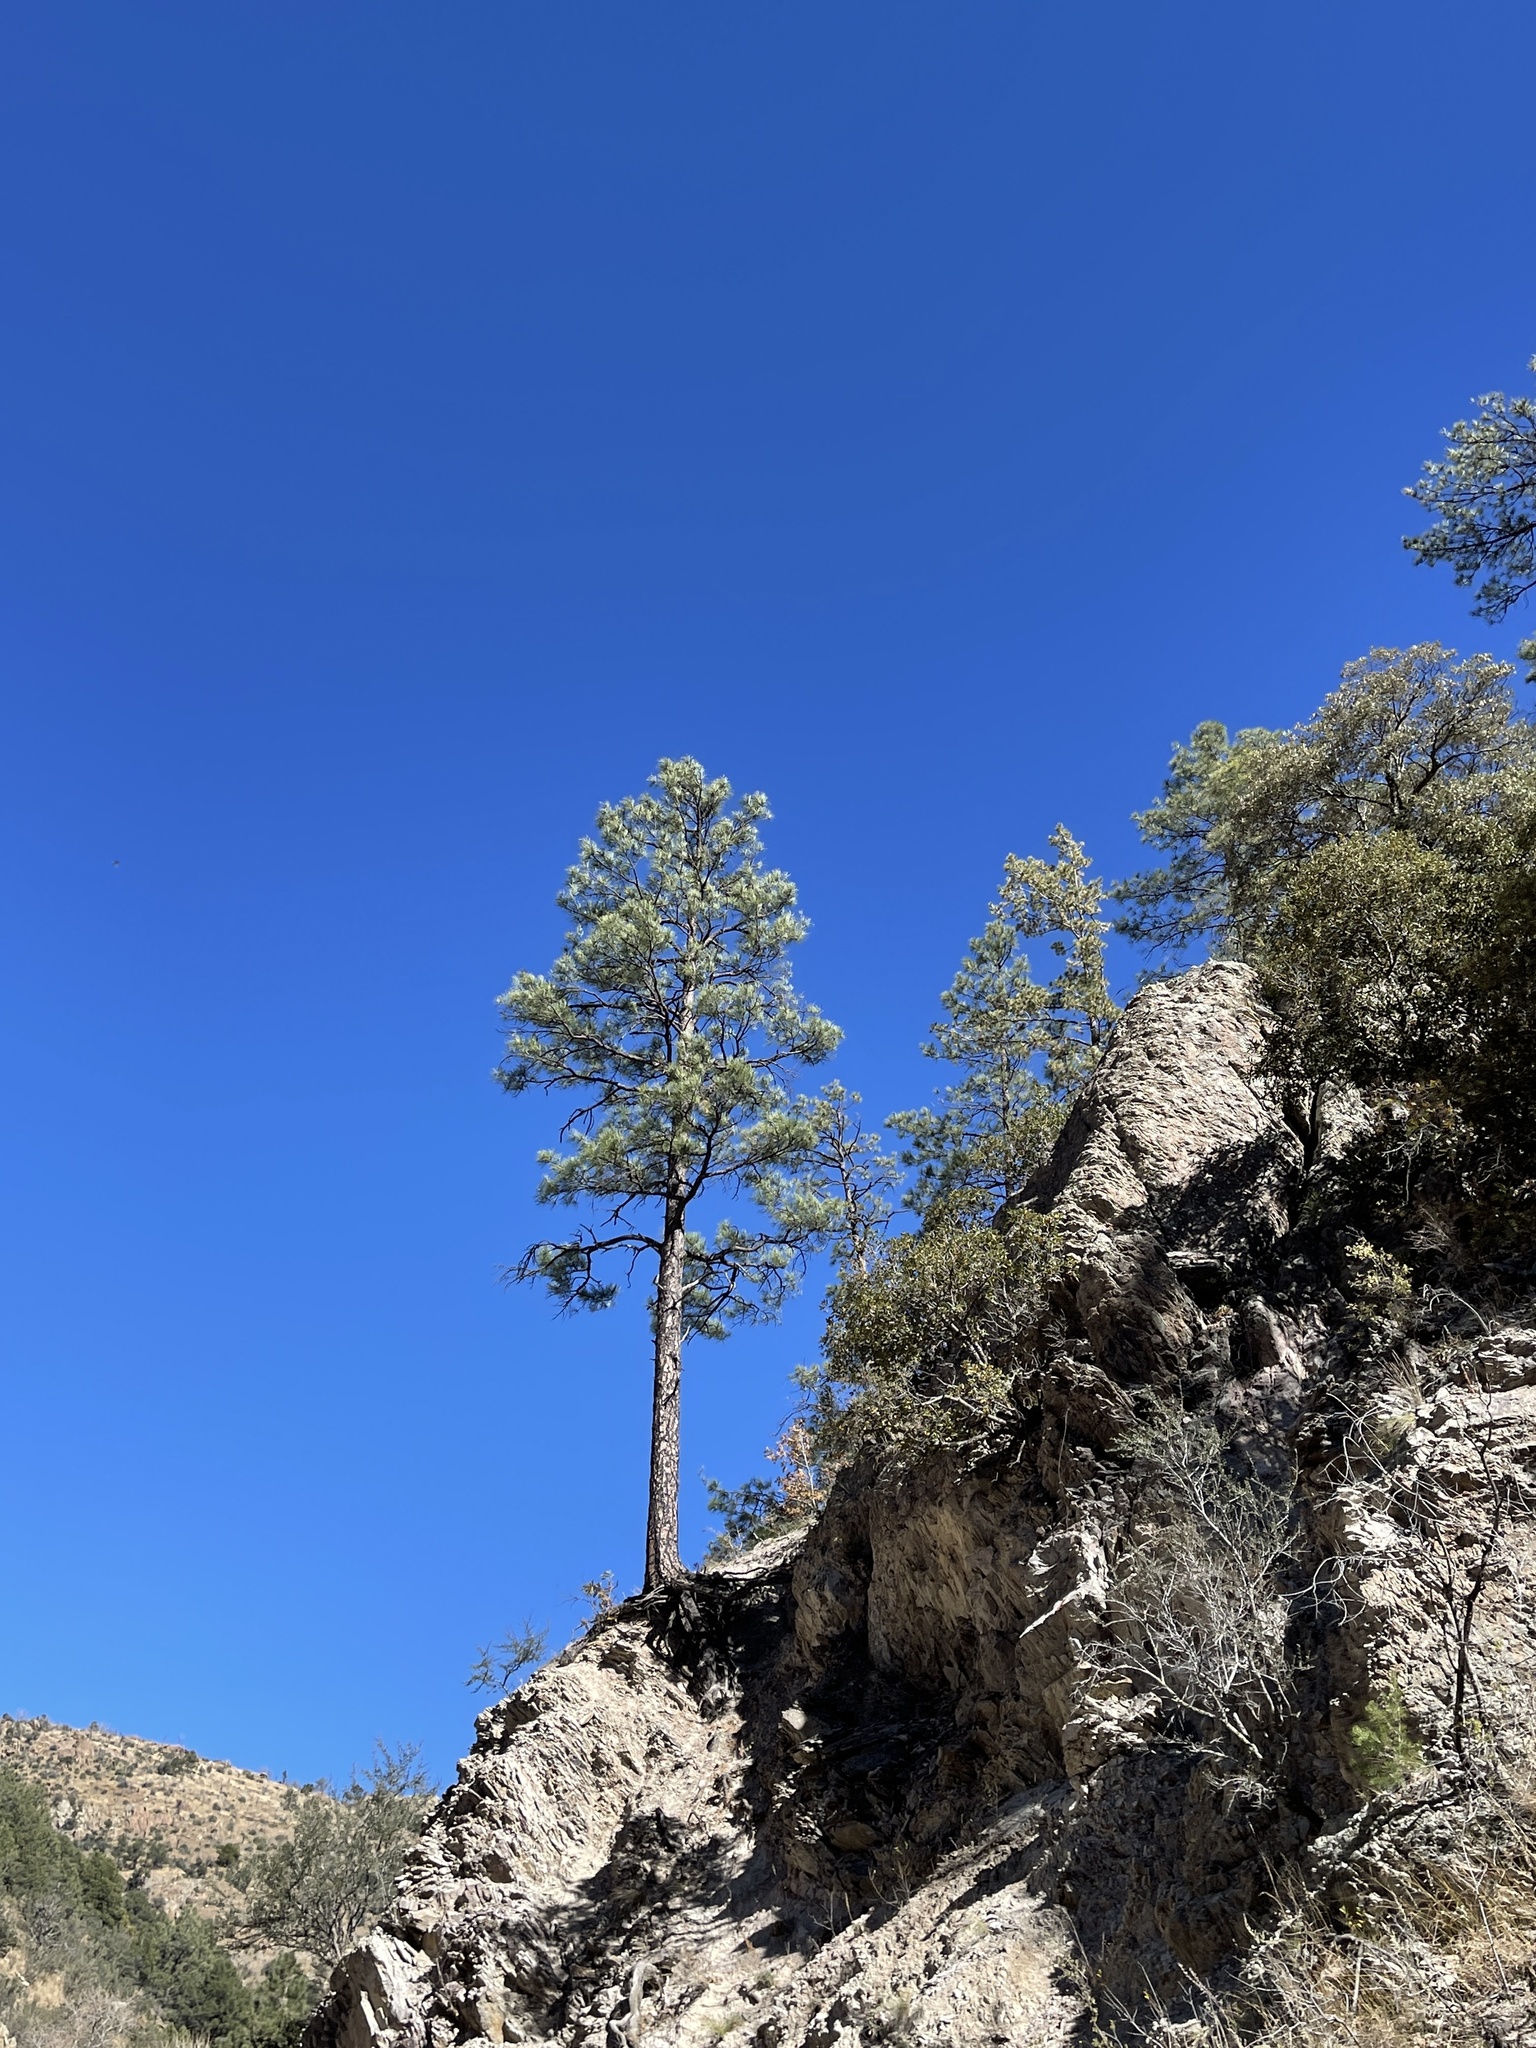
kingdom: Plantae
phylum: Tracheophyta
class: Pinopsida
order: Pinales
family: Pinaceae
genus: Pinus
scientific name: Pinus ponderosa
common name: Western yellow-pine
